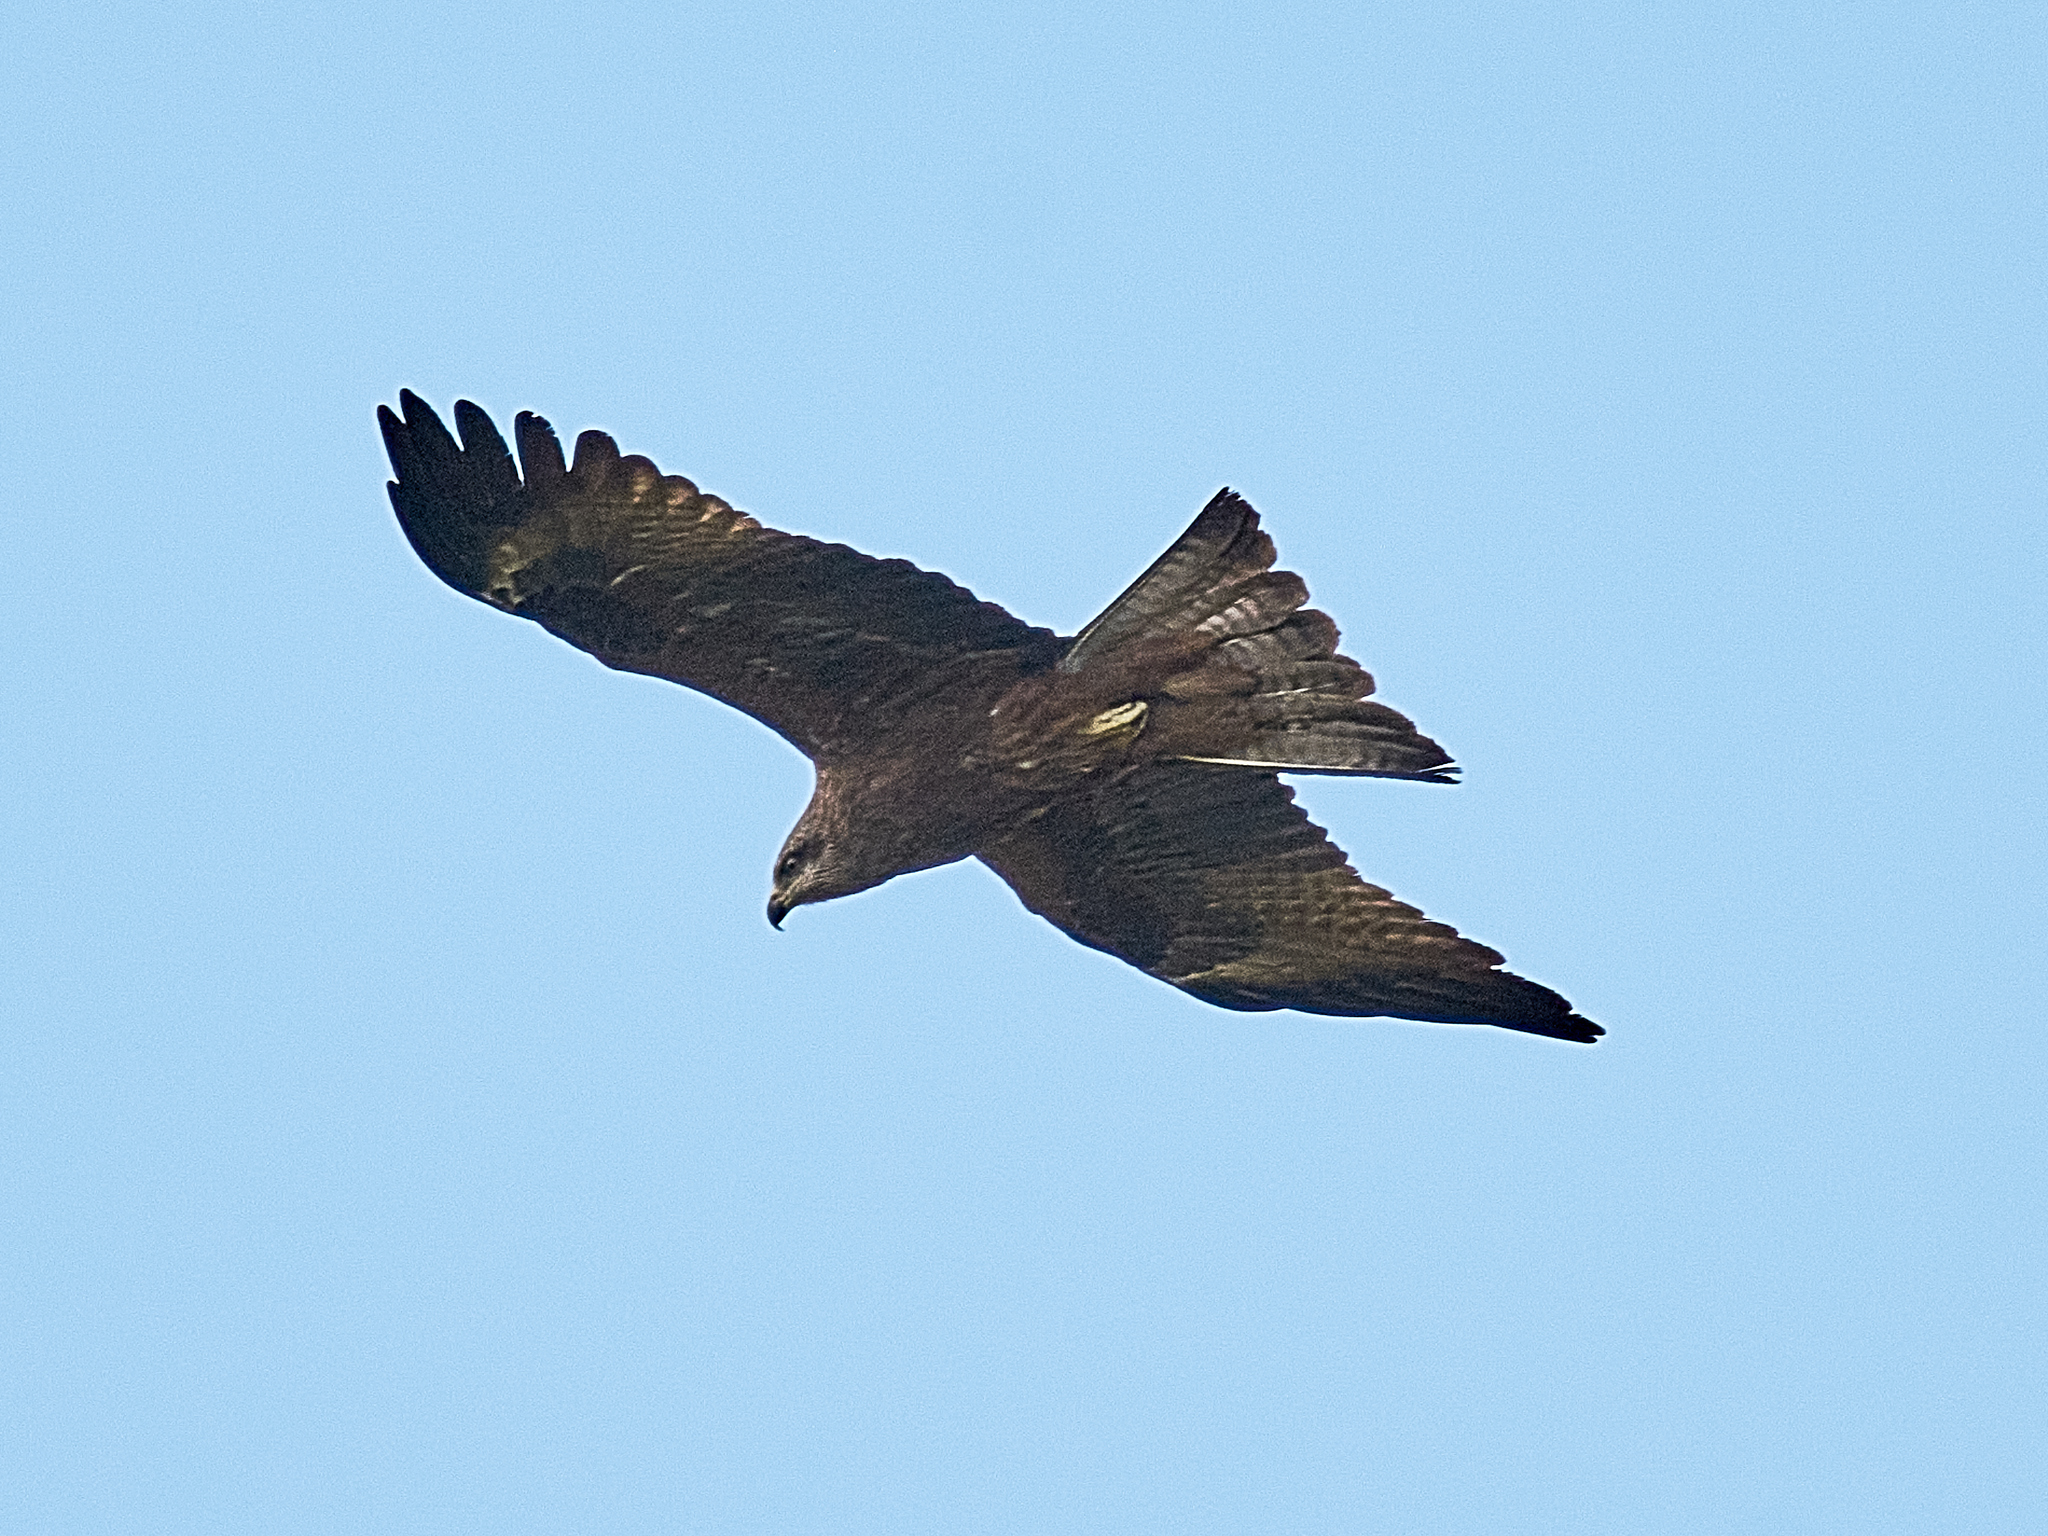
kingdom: Animalia
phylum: Chordata
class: Aves
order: Accipitriformes
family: Accipitridae
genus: Milvus
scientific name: Milvus migrans
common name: Black kite
